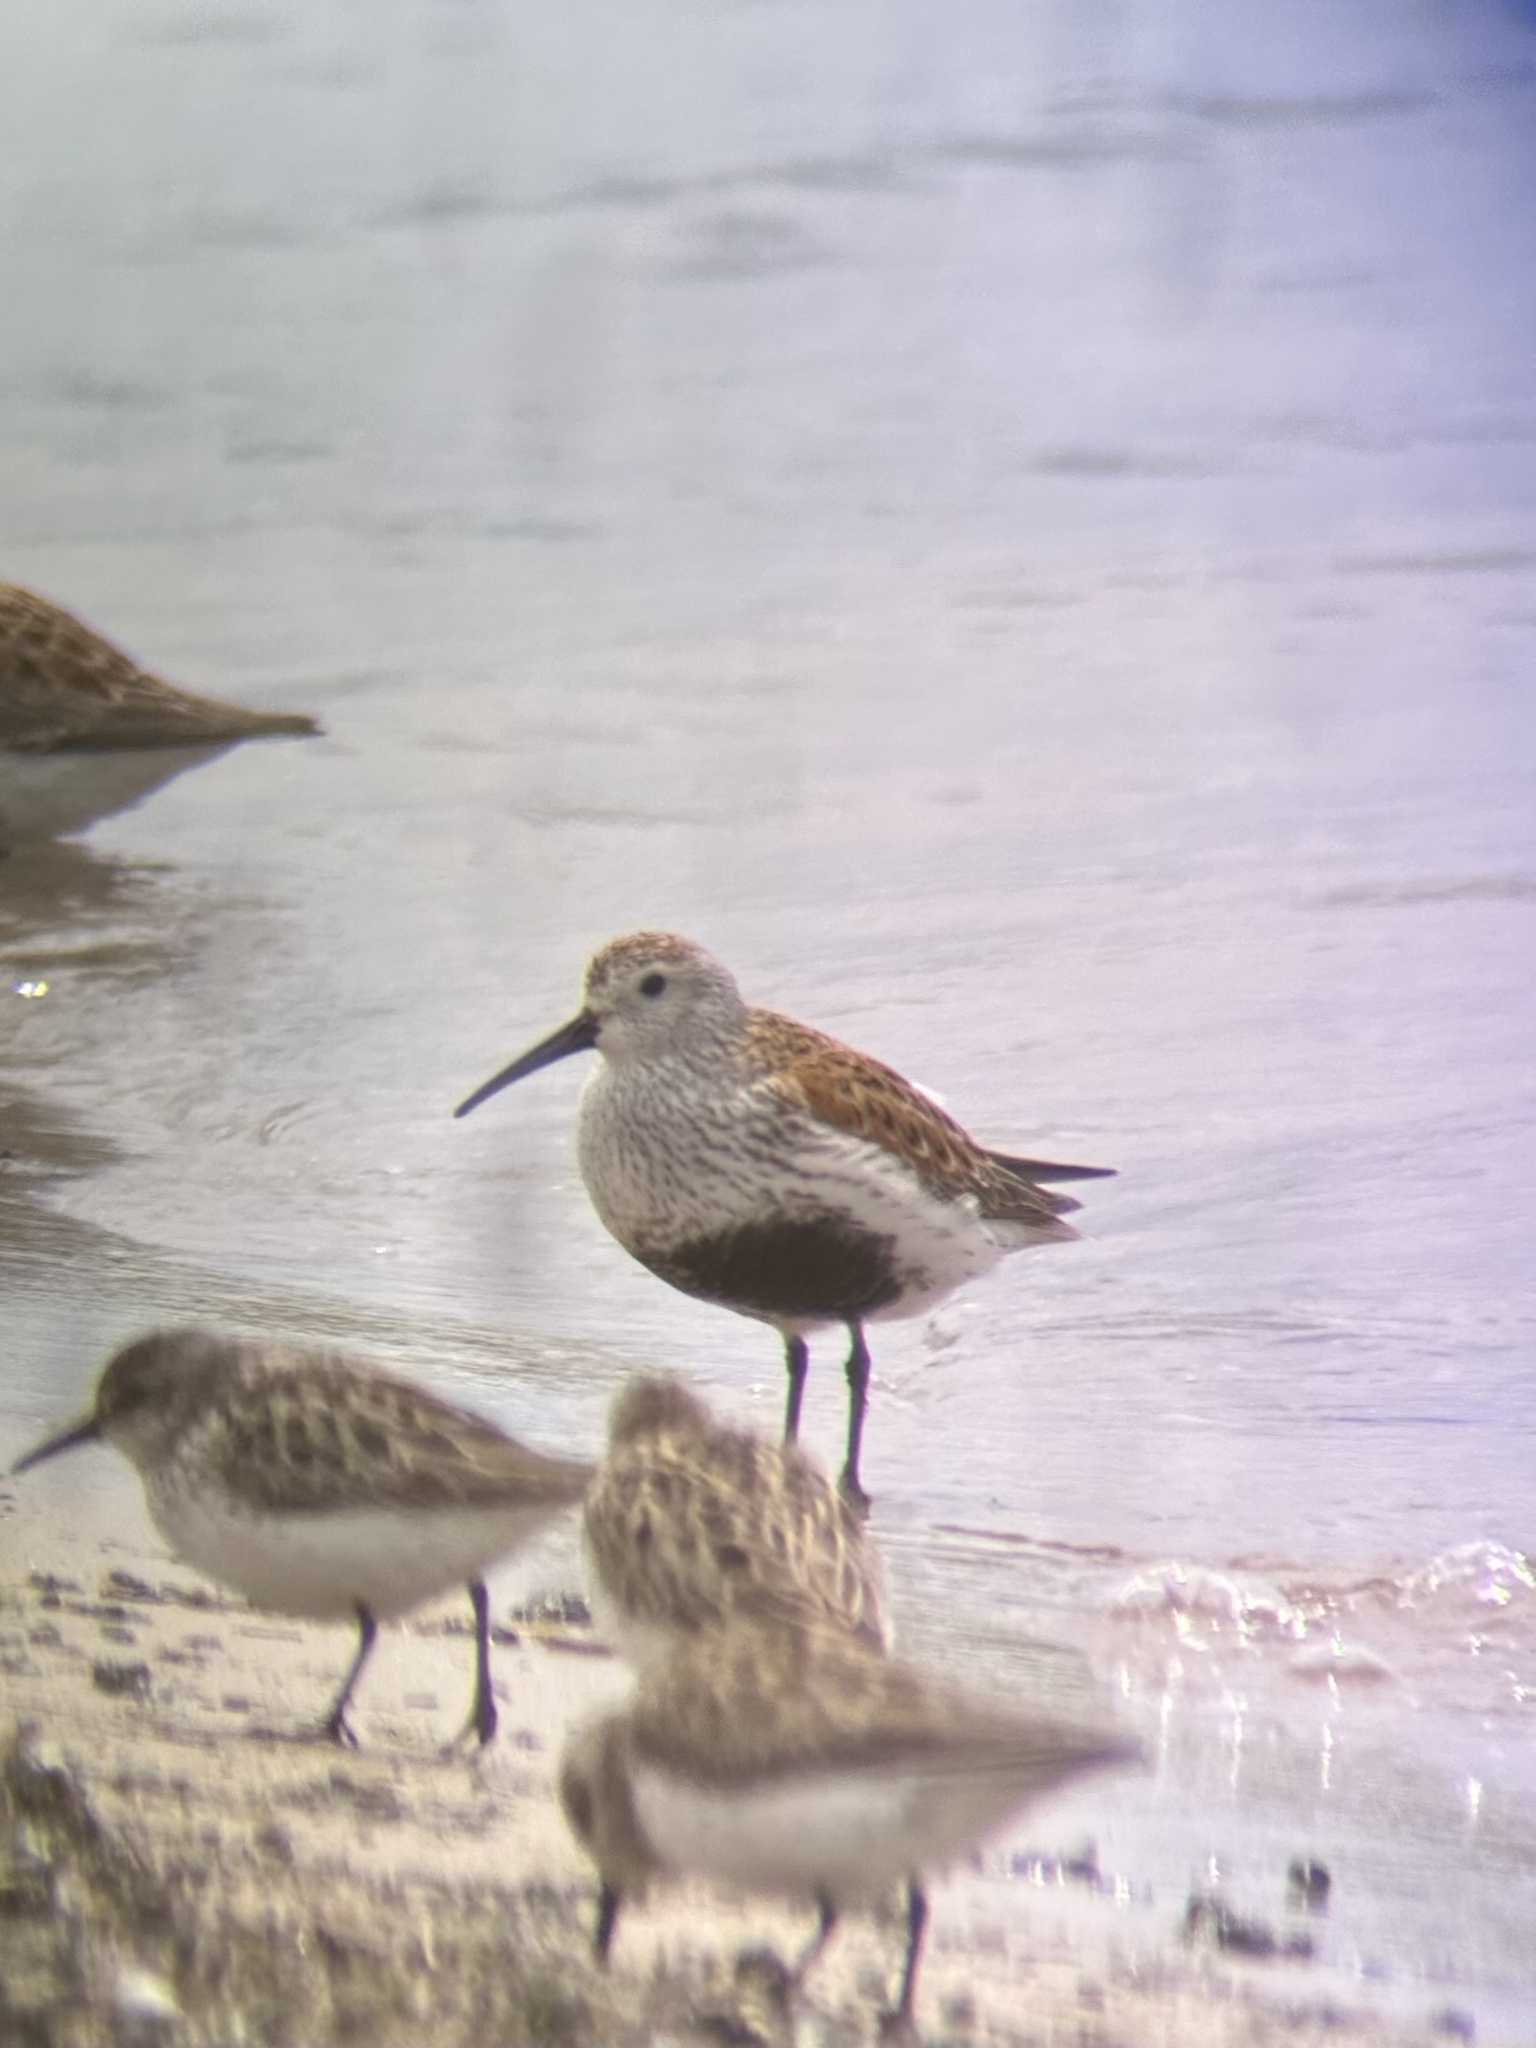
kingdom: Animalia
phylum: Chordata
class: Aves
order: Charadriiformes
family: Scolopacidae
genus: Calidris
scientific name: Calidris alpina
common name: Dunlin
